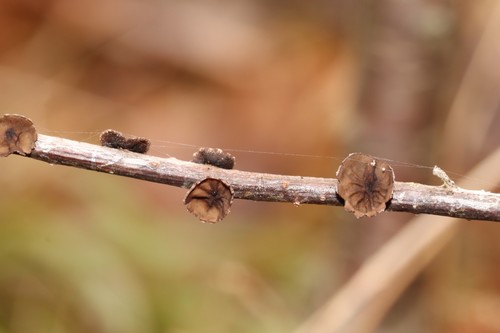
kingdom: Fungi
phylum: Ascomycota
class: Leotiomycetes
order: Helotiales
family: Sclerotiniaceae
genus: Sclerencoelia
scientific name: Sclerencoelia fascicularis
